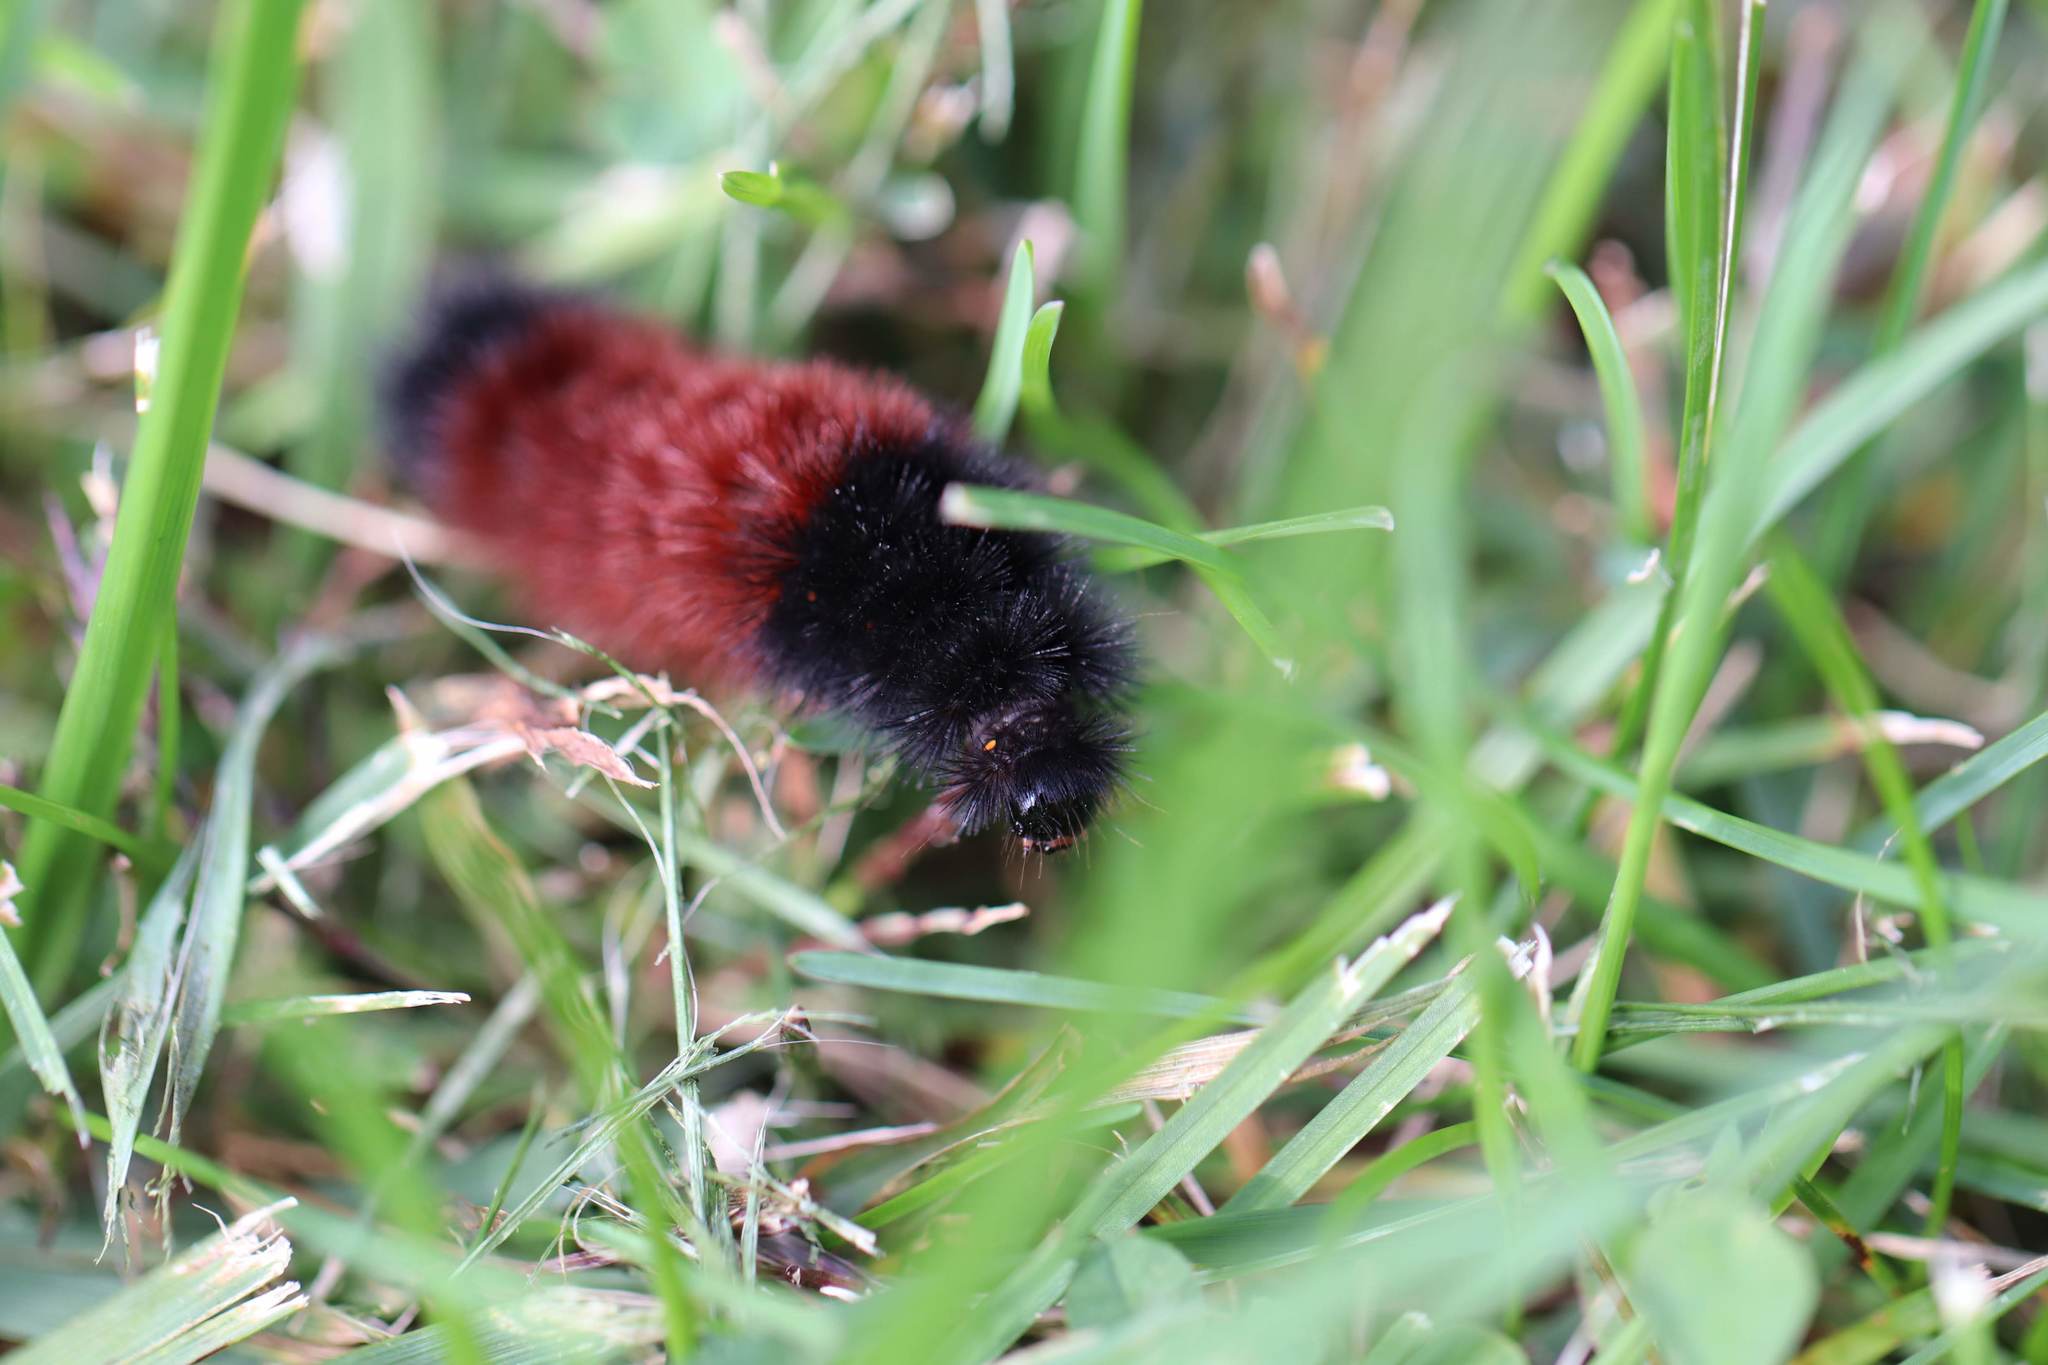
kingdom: Animalia
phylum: Arthropoda
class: Insecta
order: Lepidoptera
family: Erebidae
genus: Pyrrharctia
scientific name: Pyrrharctia isabella
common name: Isabella tiger moth
